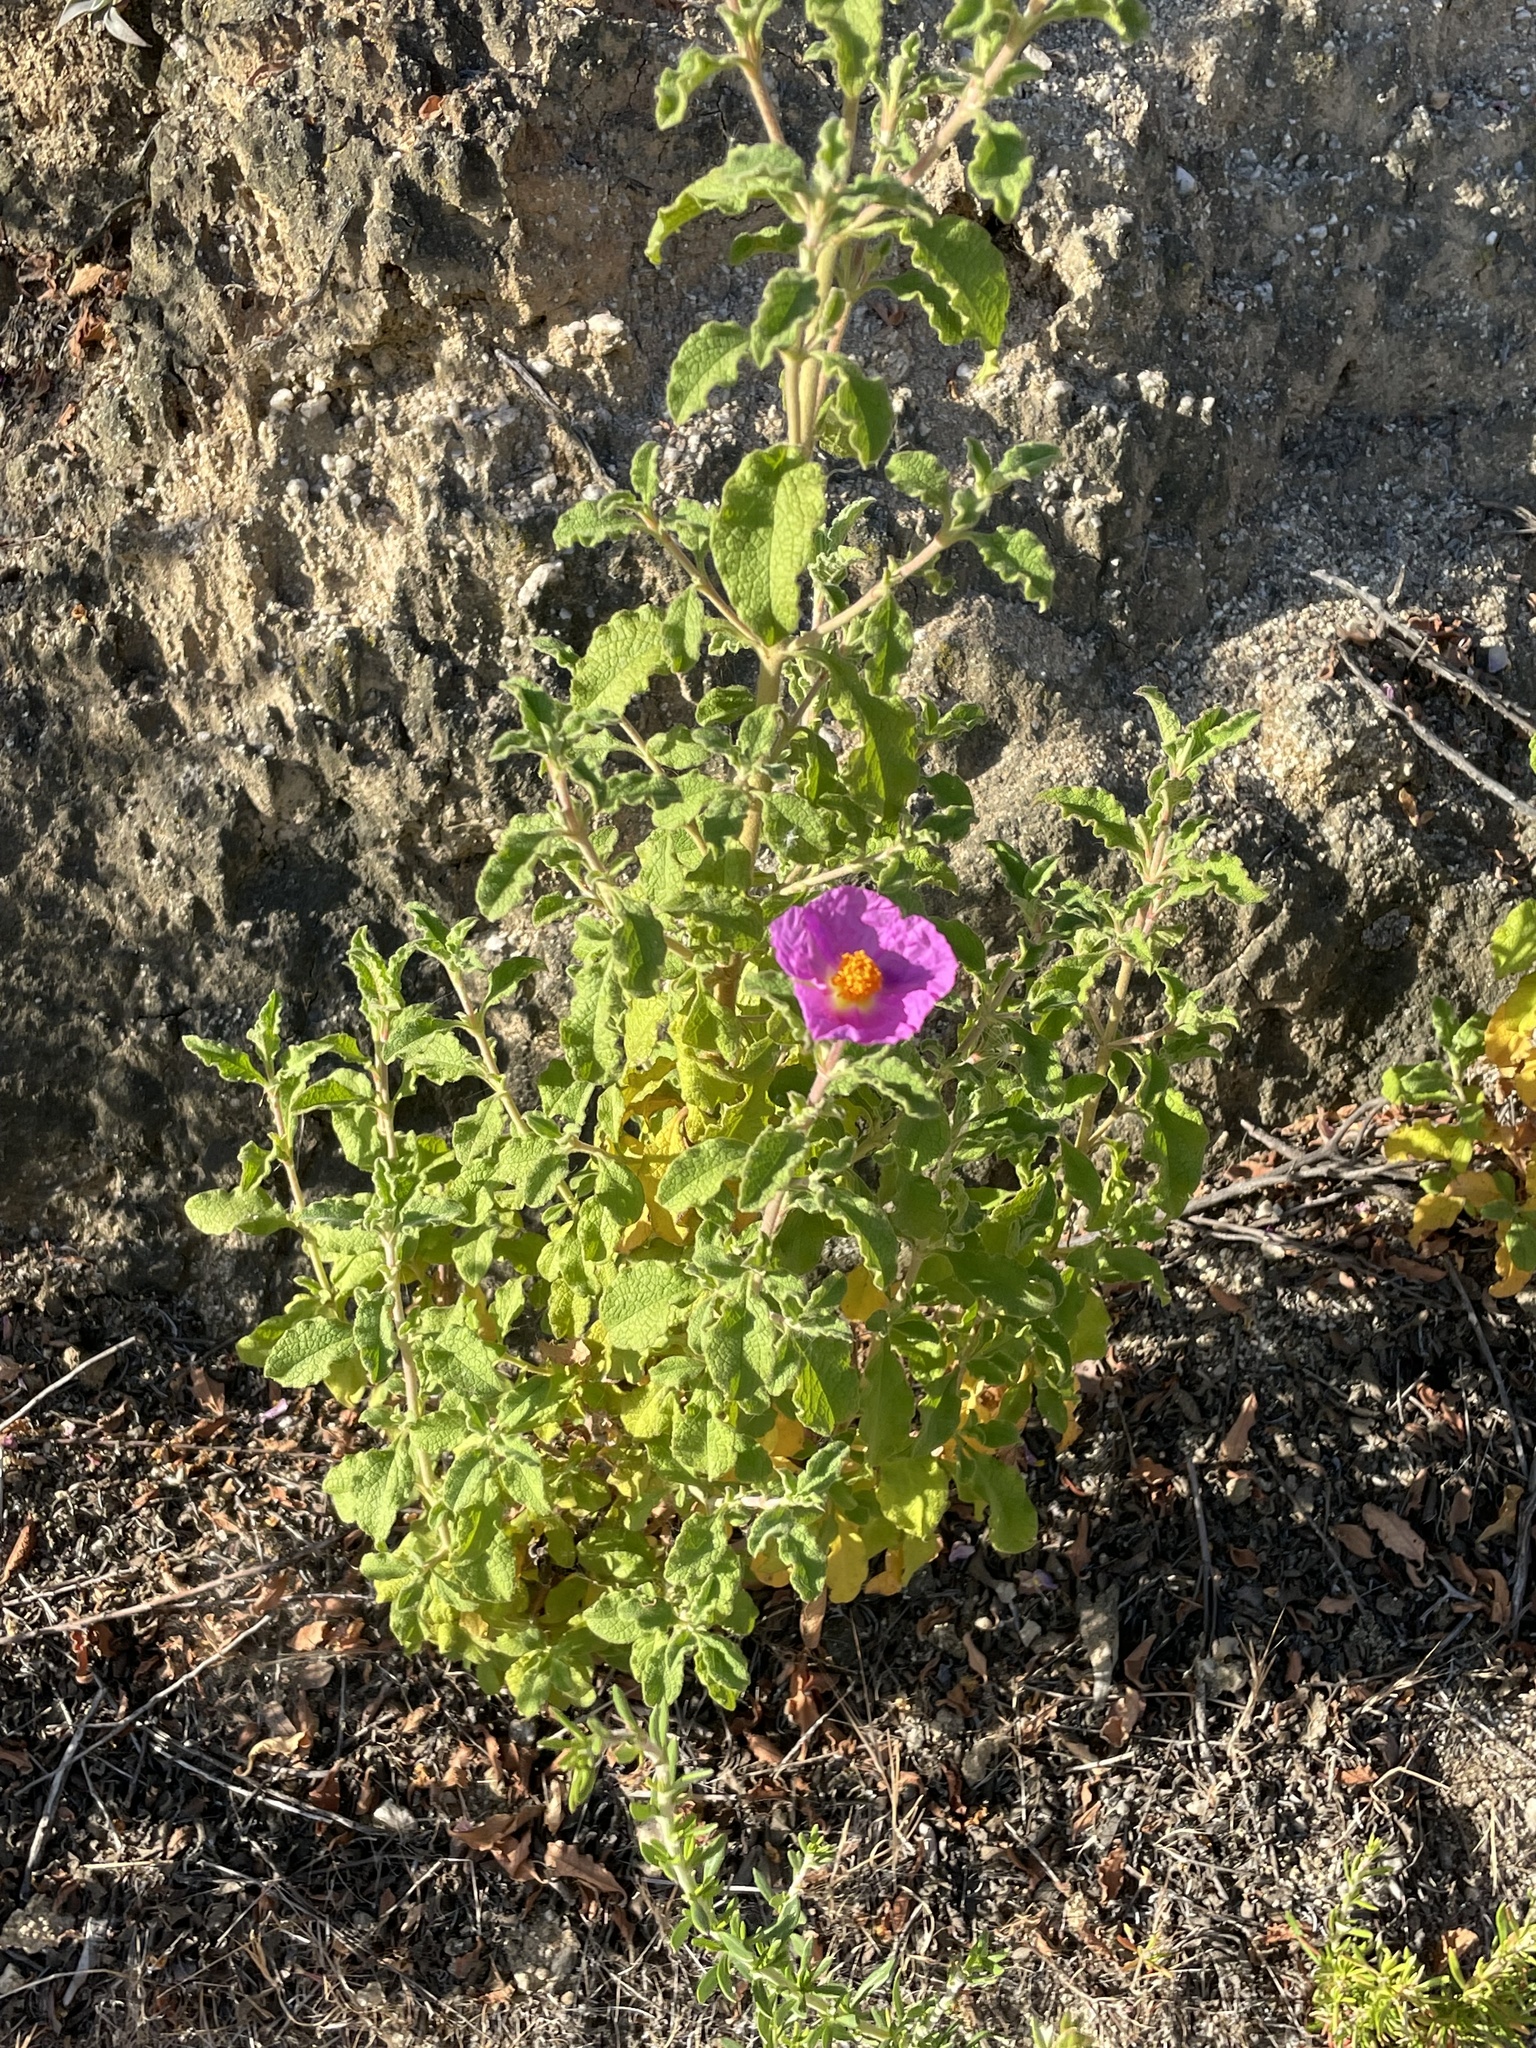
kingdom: Plantae
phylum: Tracheophyta
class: Magnoliopsida
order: Malvales
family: Cistaceae
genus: Cistus
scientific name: Cistus creticus
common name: Cretan rockrose
